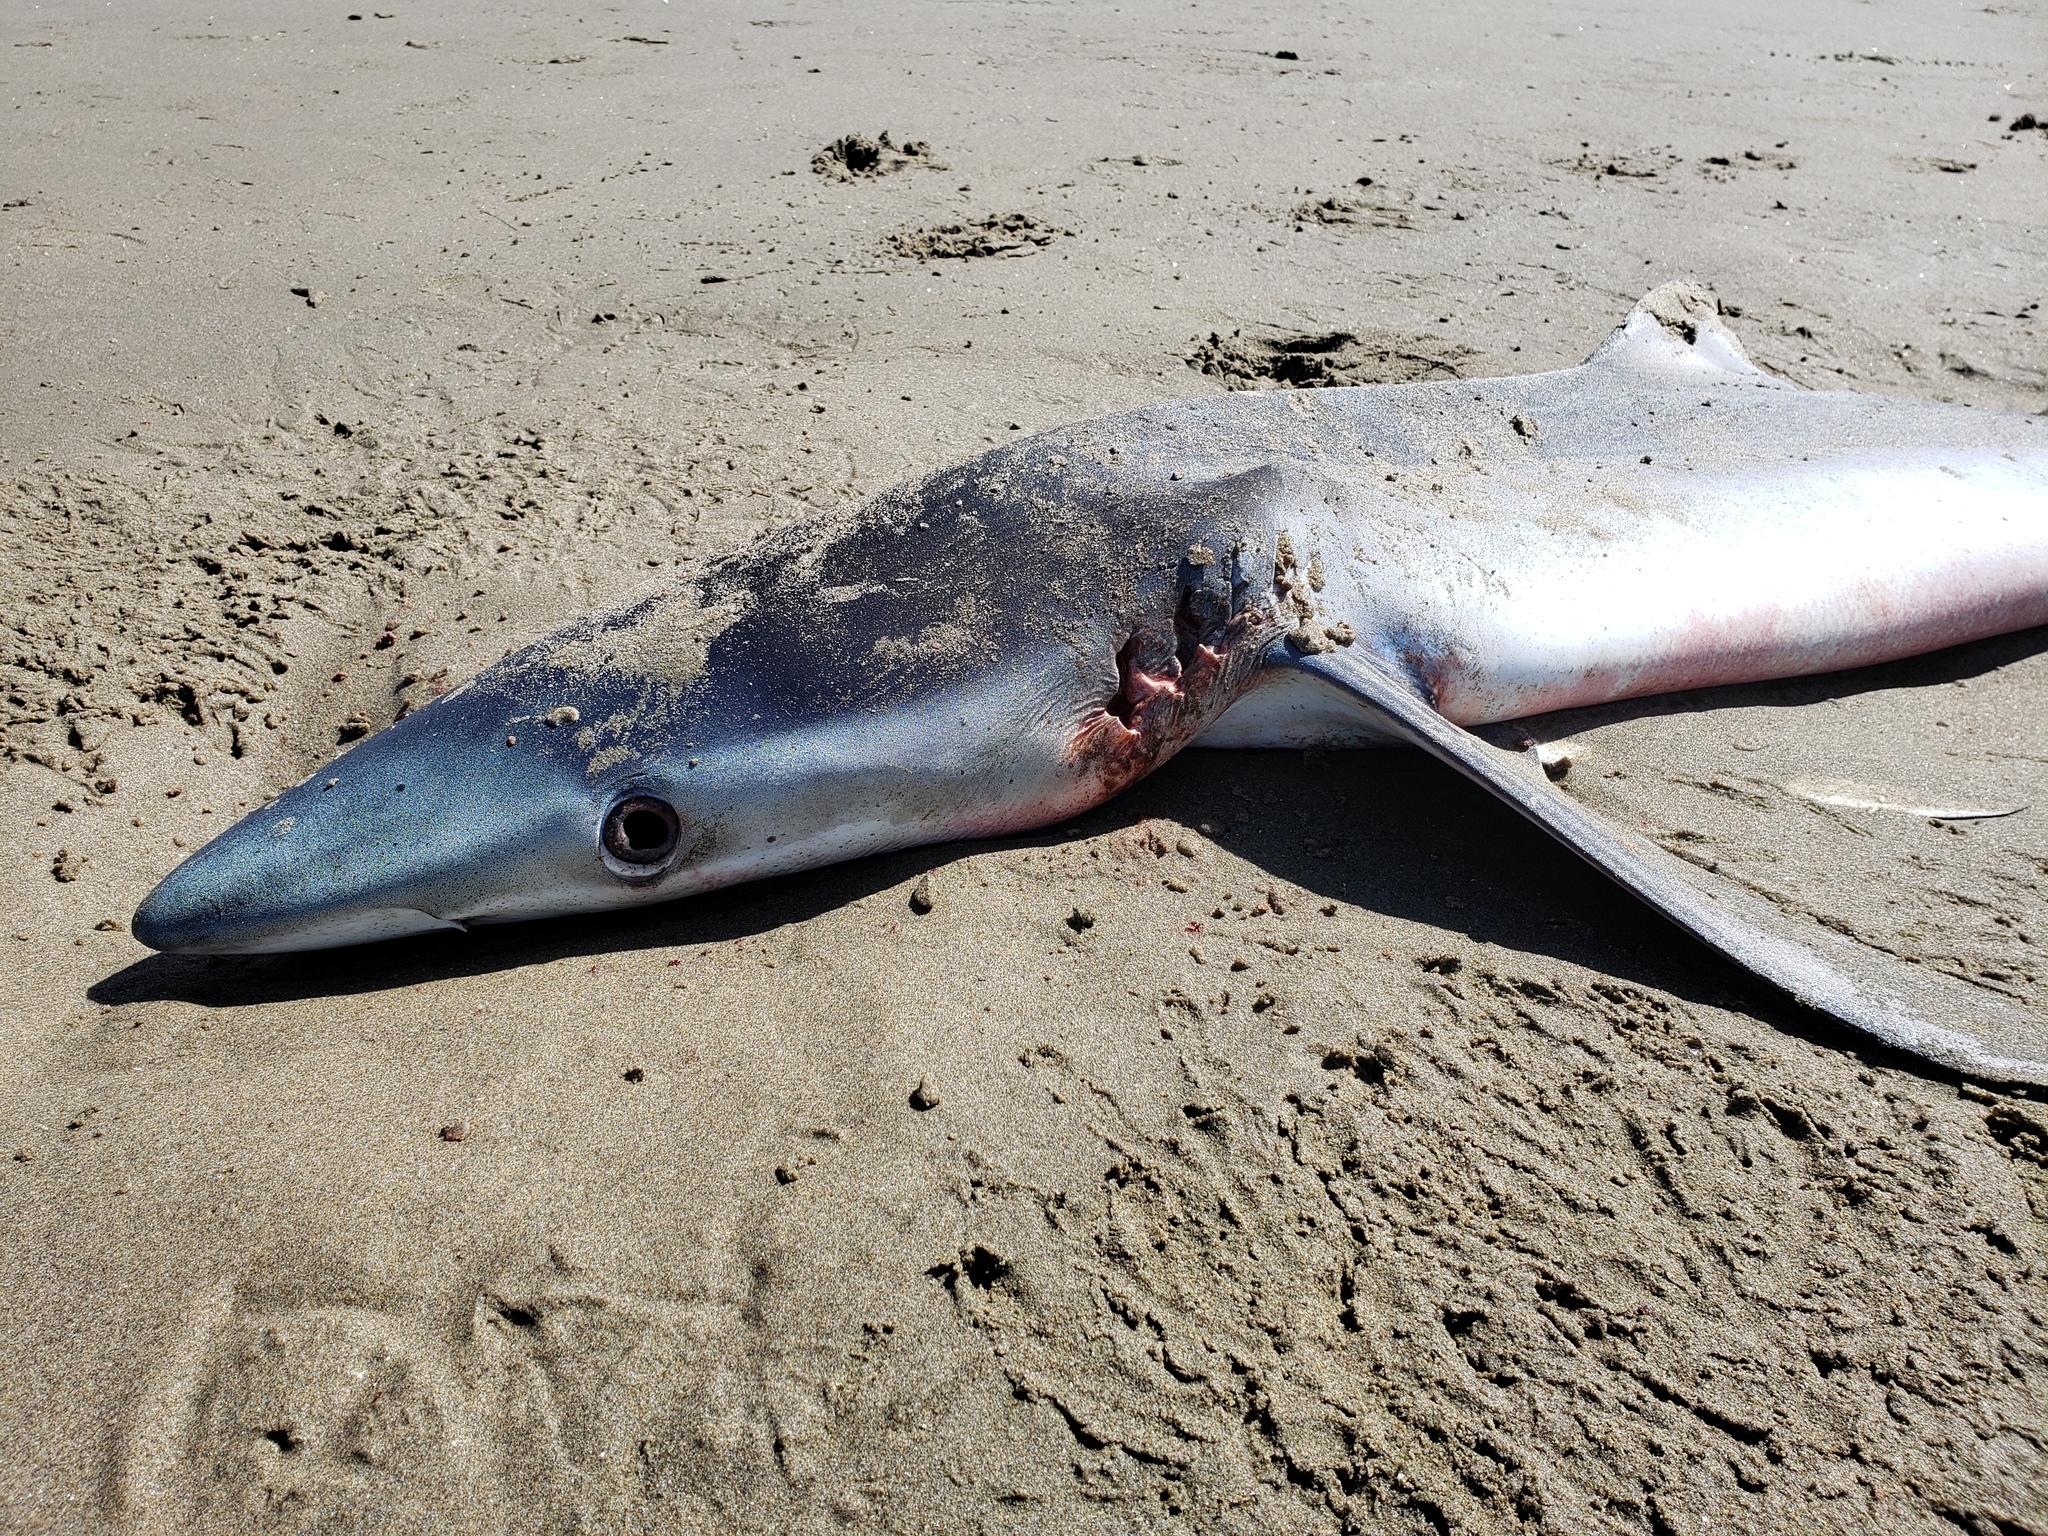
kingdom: Animalia
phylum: Chordata
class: Elasmobranchii
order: Carcharhiniformes
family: Carcharhinidae
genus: Prionace
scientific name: Prionace glauca
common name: Blue shark
